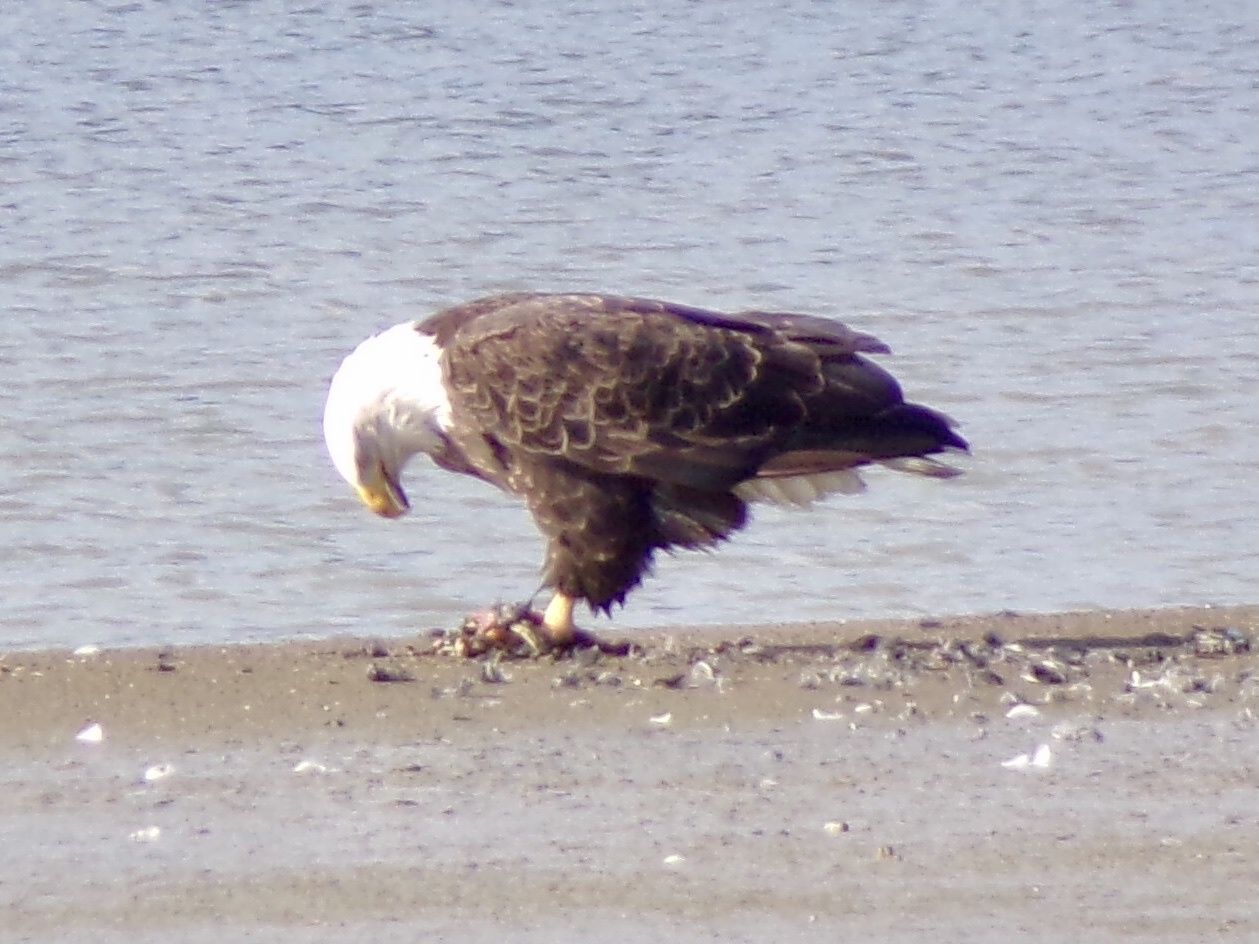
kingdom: Animalia
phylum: Chordata
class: Aves
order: Accipitriformes
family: Accipitridae
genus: Haliaeetus
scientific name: Haliaeetus leucocephalus
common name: Bald eagle
